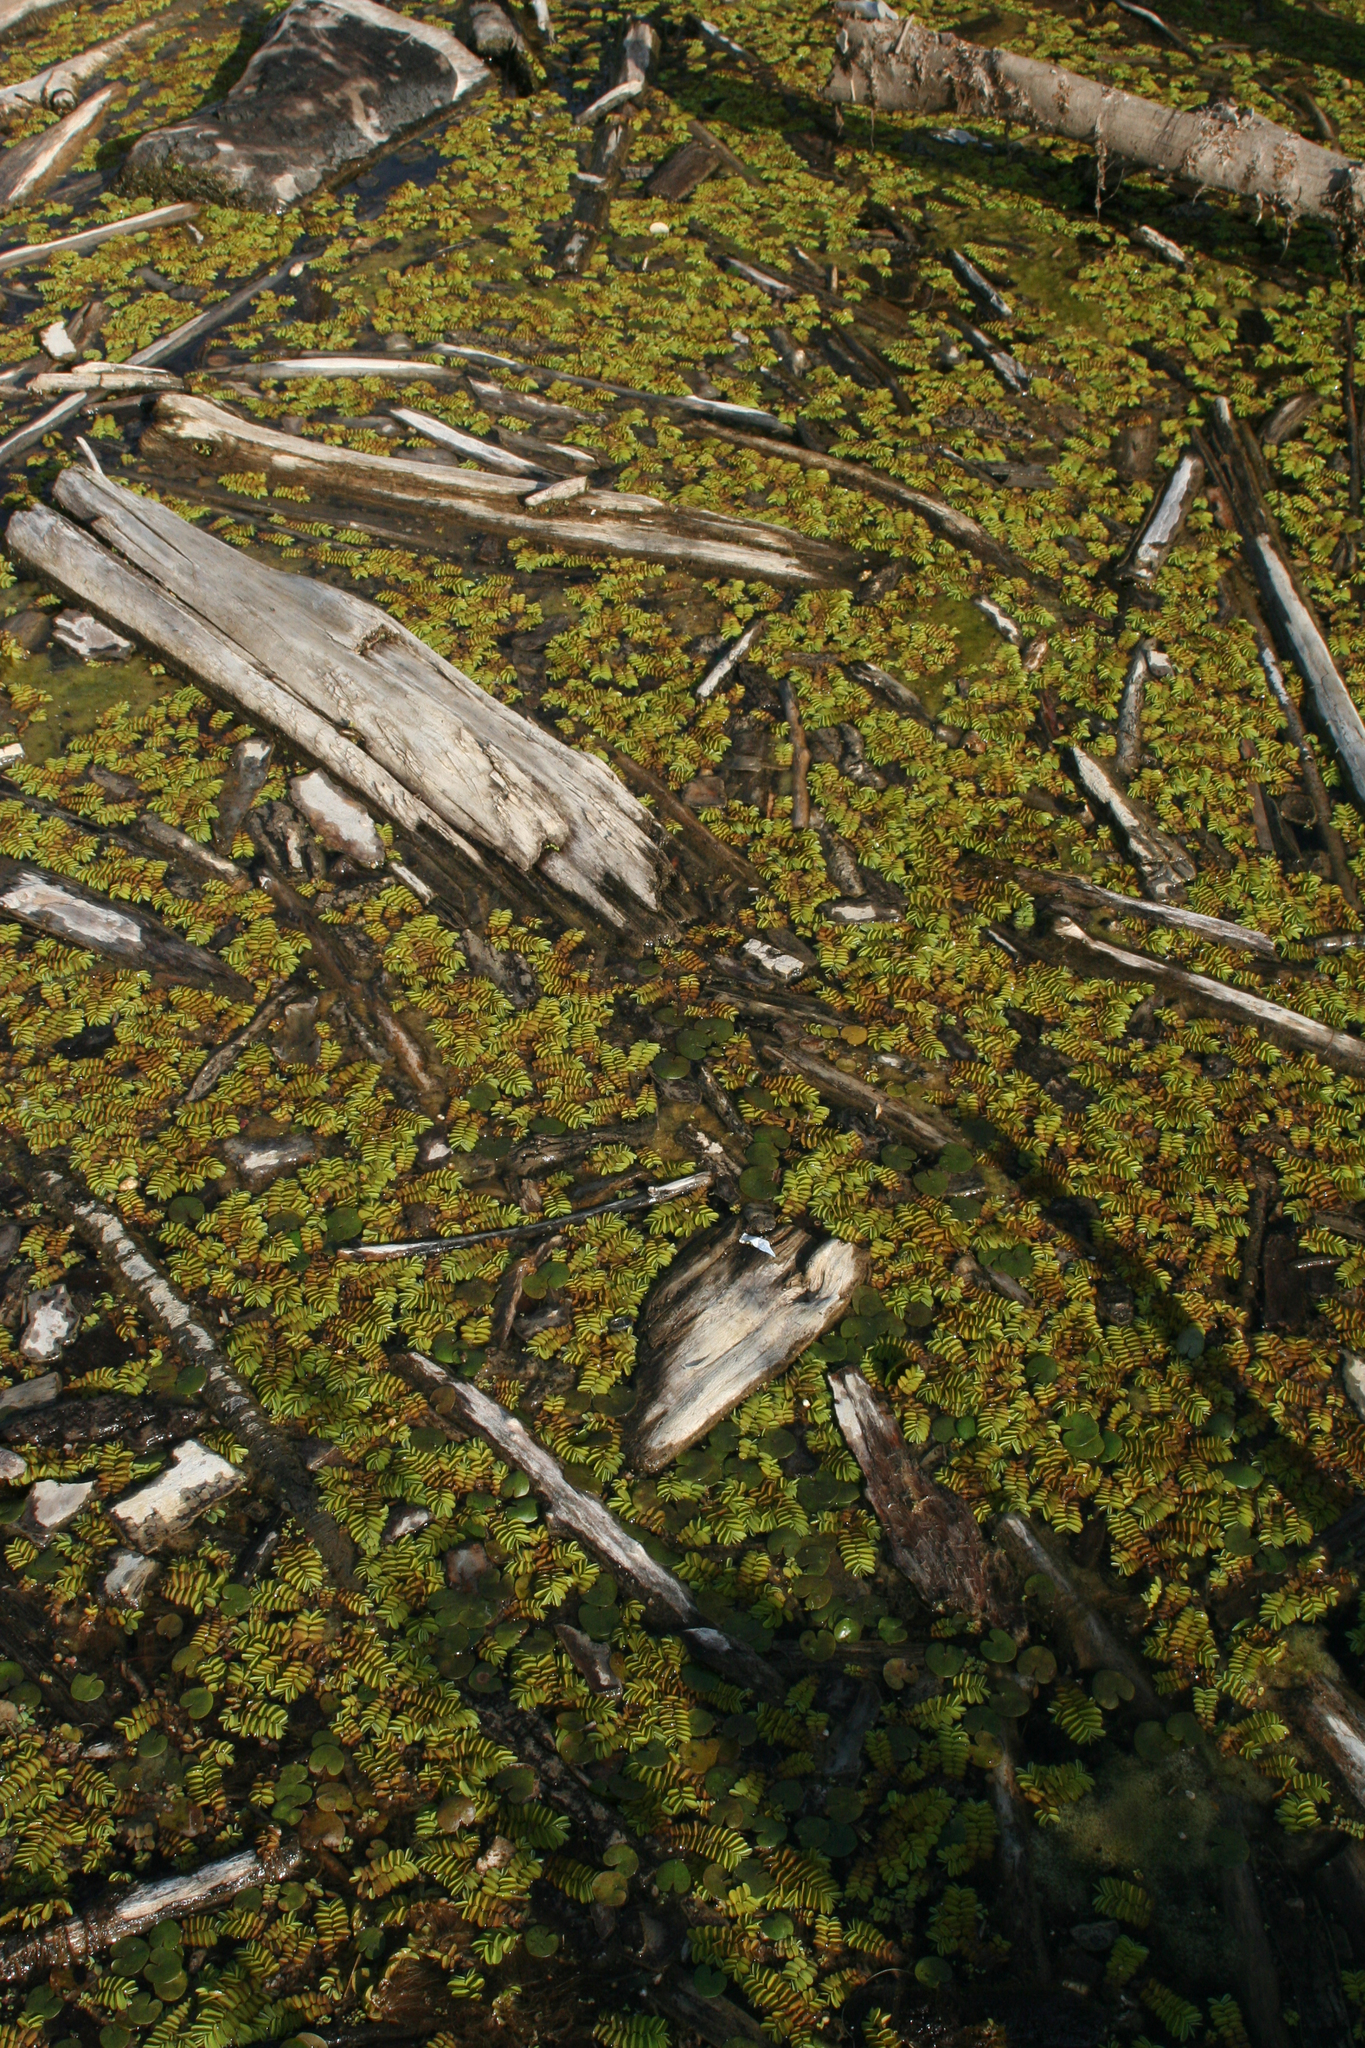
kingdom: Plantae
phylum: Tracheophyta
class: Polypodiopsida
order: Salviniales
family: Salviniaceae
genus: Salvinia
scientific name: Salvinia natans
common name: Floating fern
